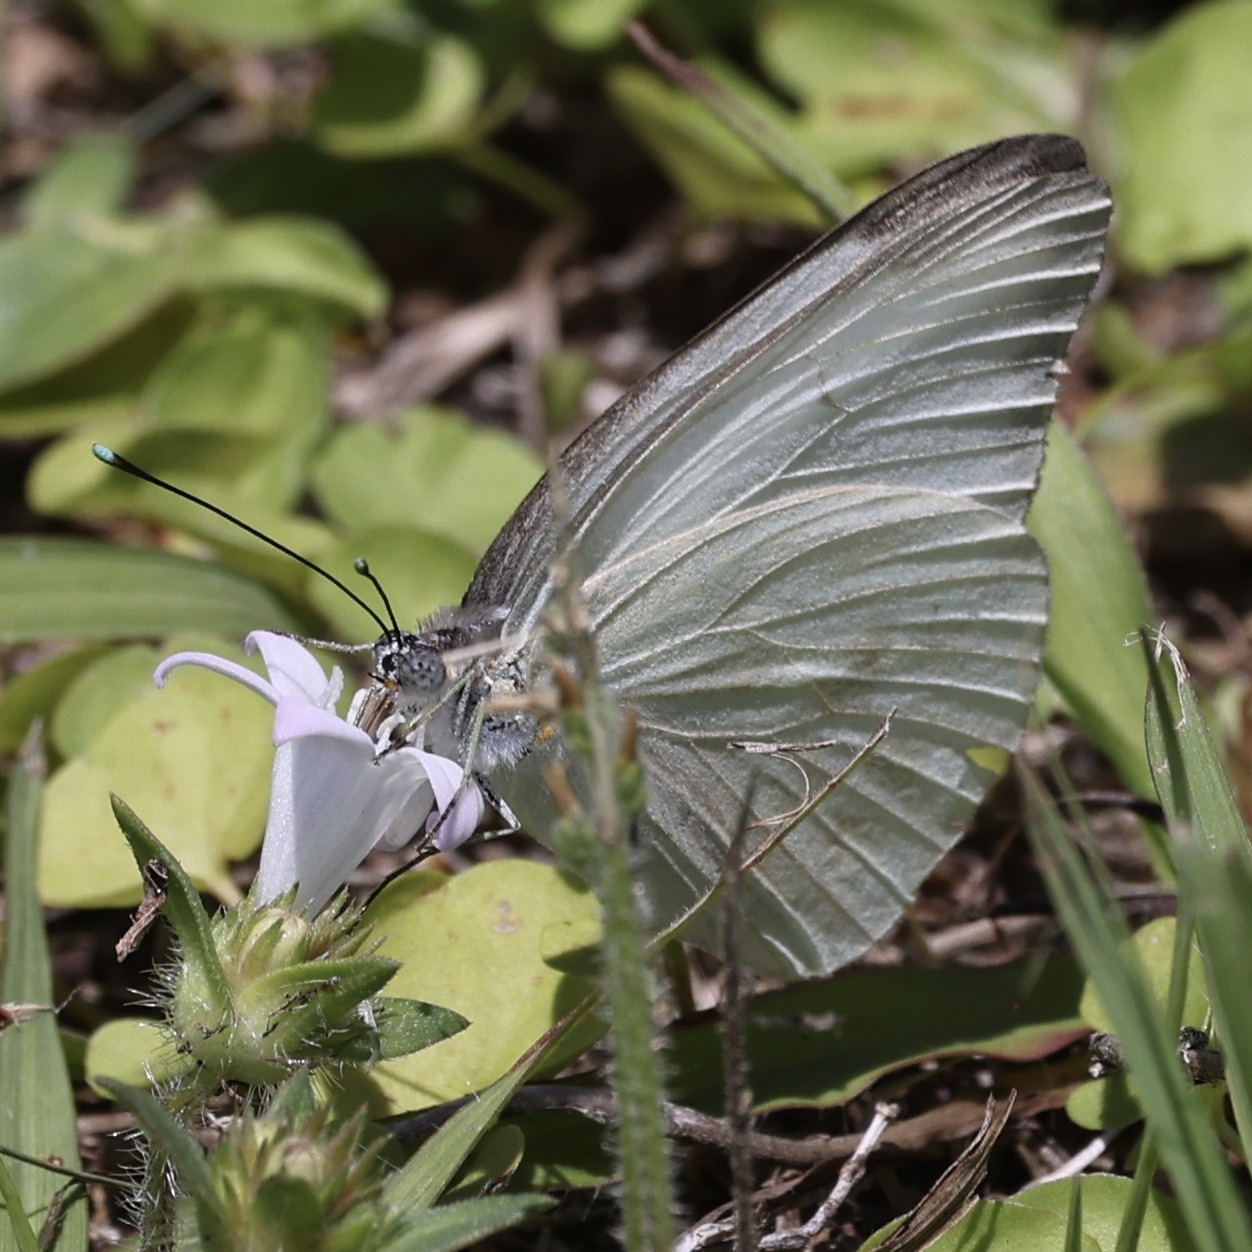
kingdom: Animalia
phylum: Arthropoda
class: Insecta
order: Lepidoptera
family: Pieridae
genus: Ascia
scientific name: Ascia monuste
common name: Great southern white
